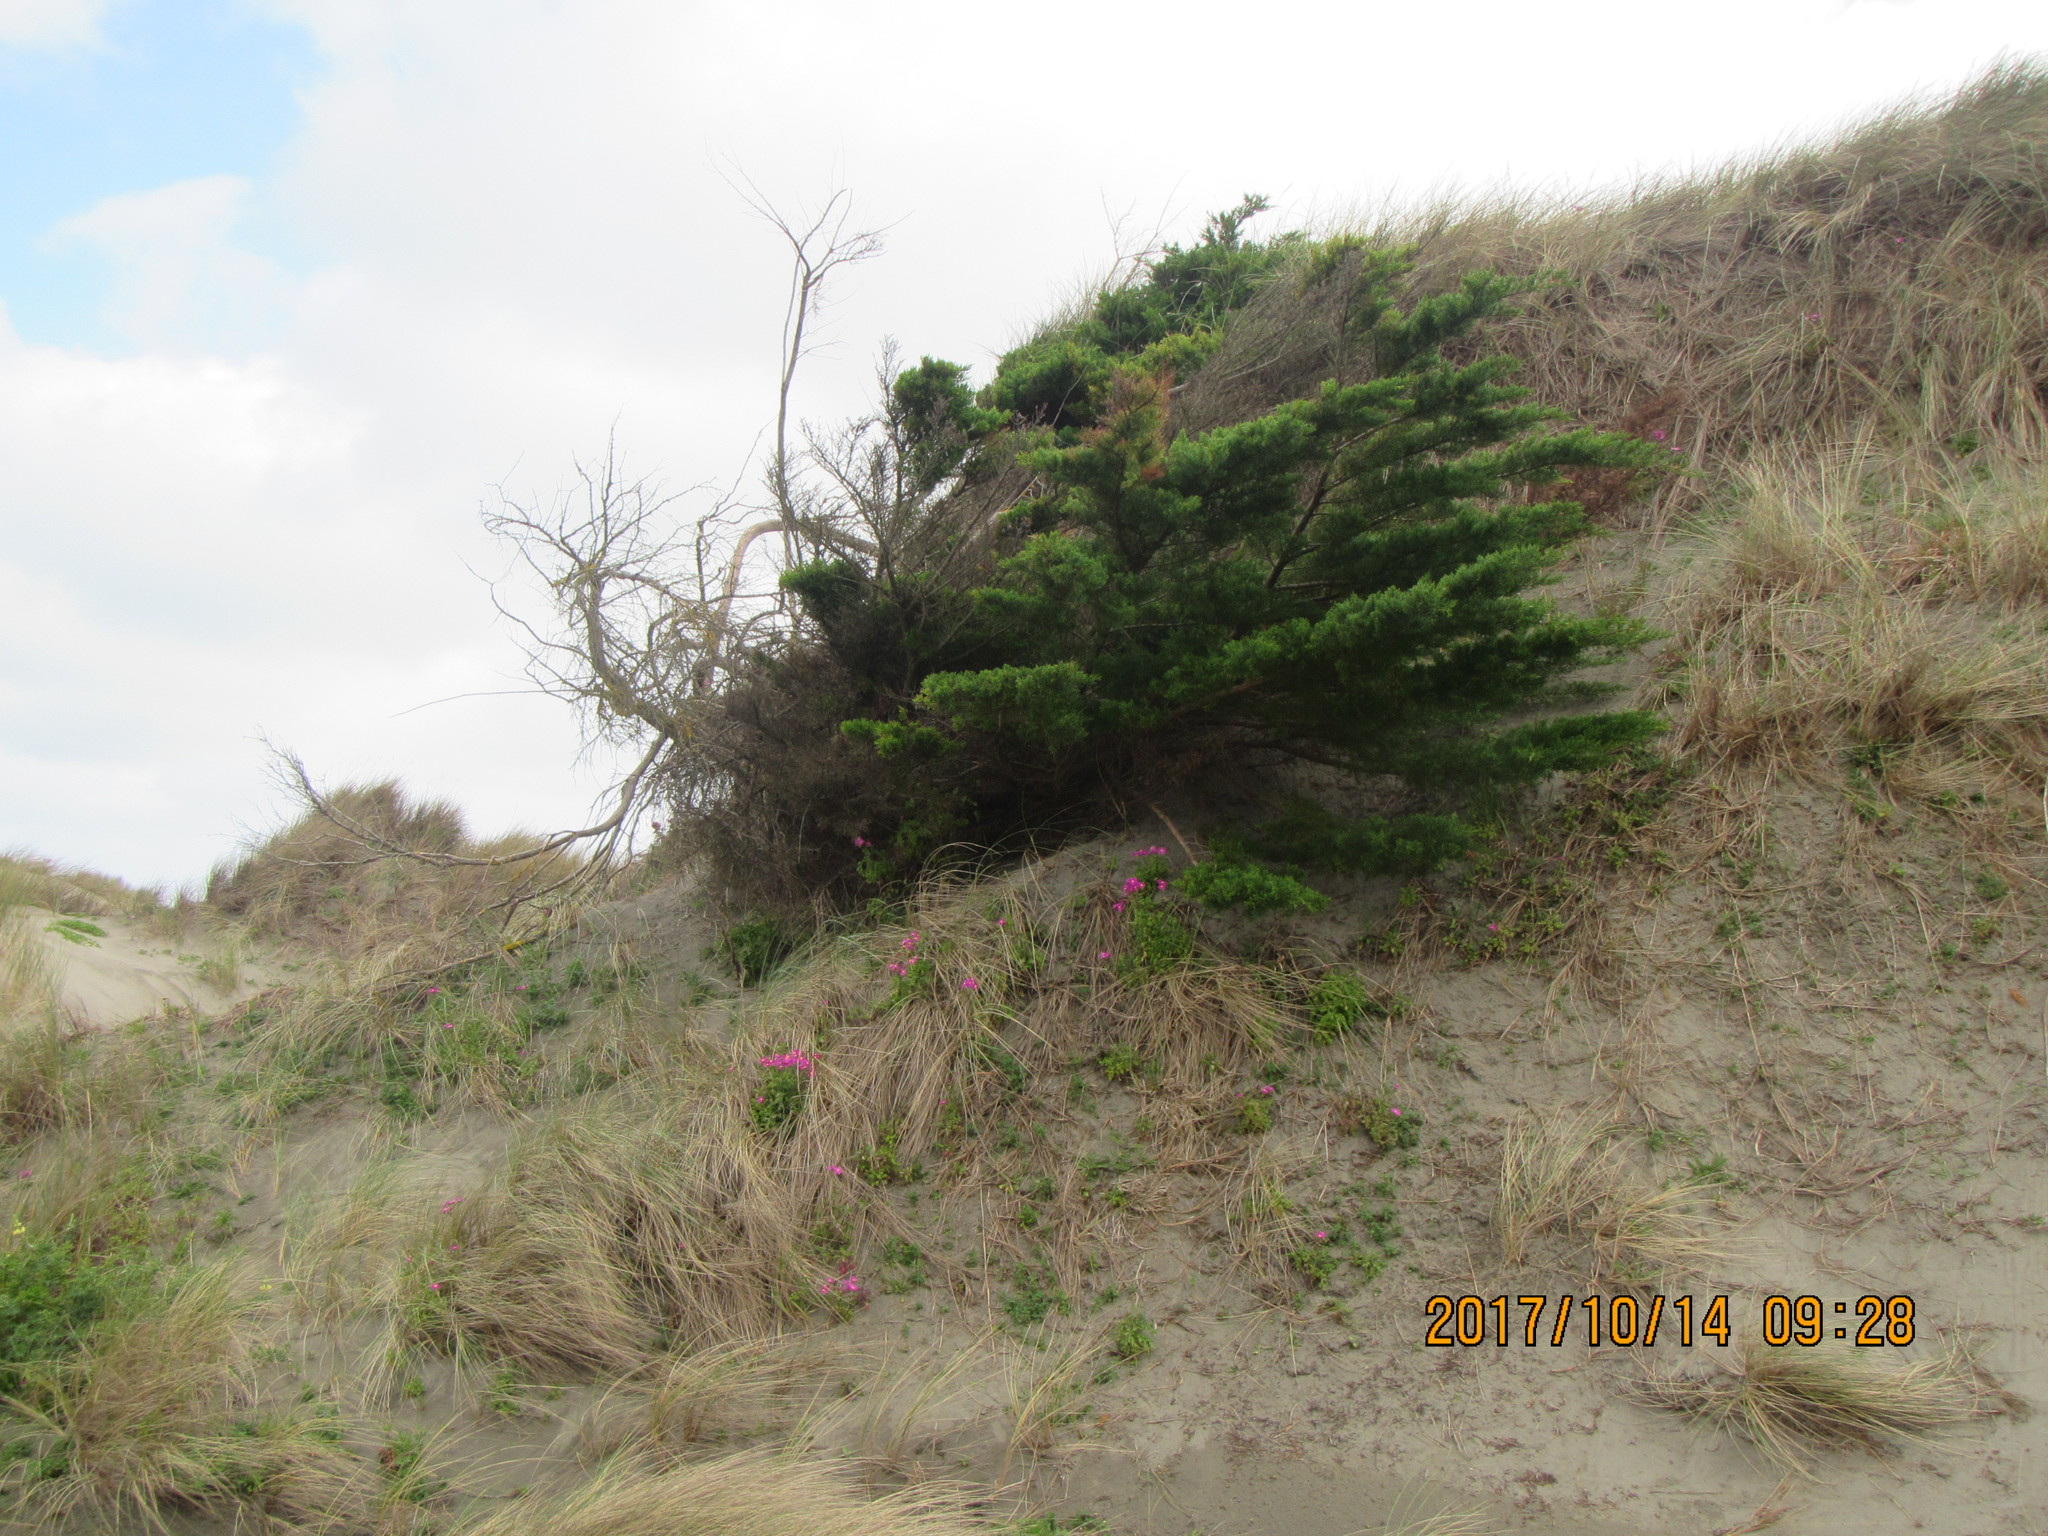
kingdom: Plantae
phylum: Tracheophyta
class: Pinopsida
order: Pinales
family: Cupressaceae
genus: Cupressus
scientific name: Cupressus macrocarpa
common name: Monterey cypress
